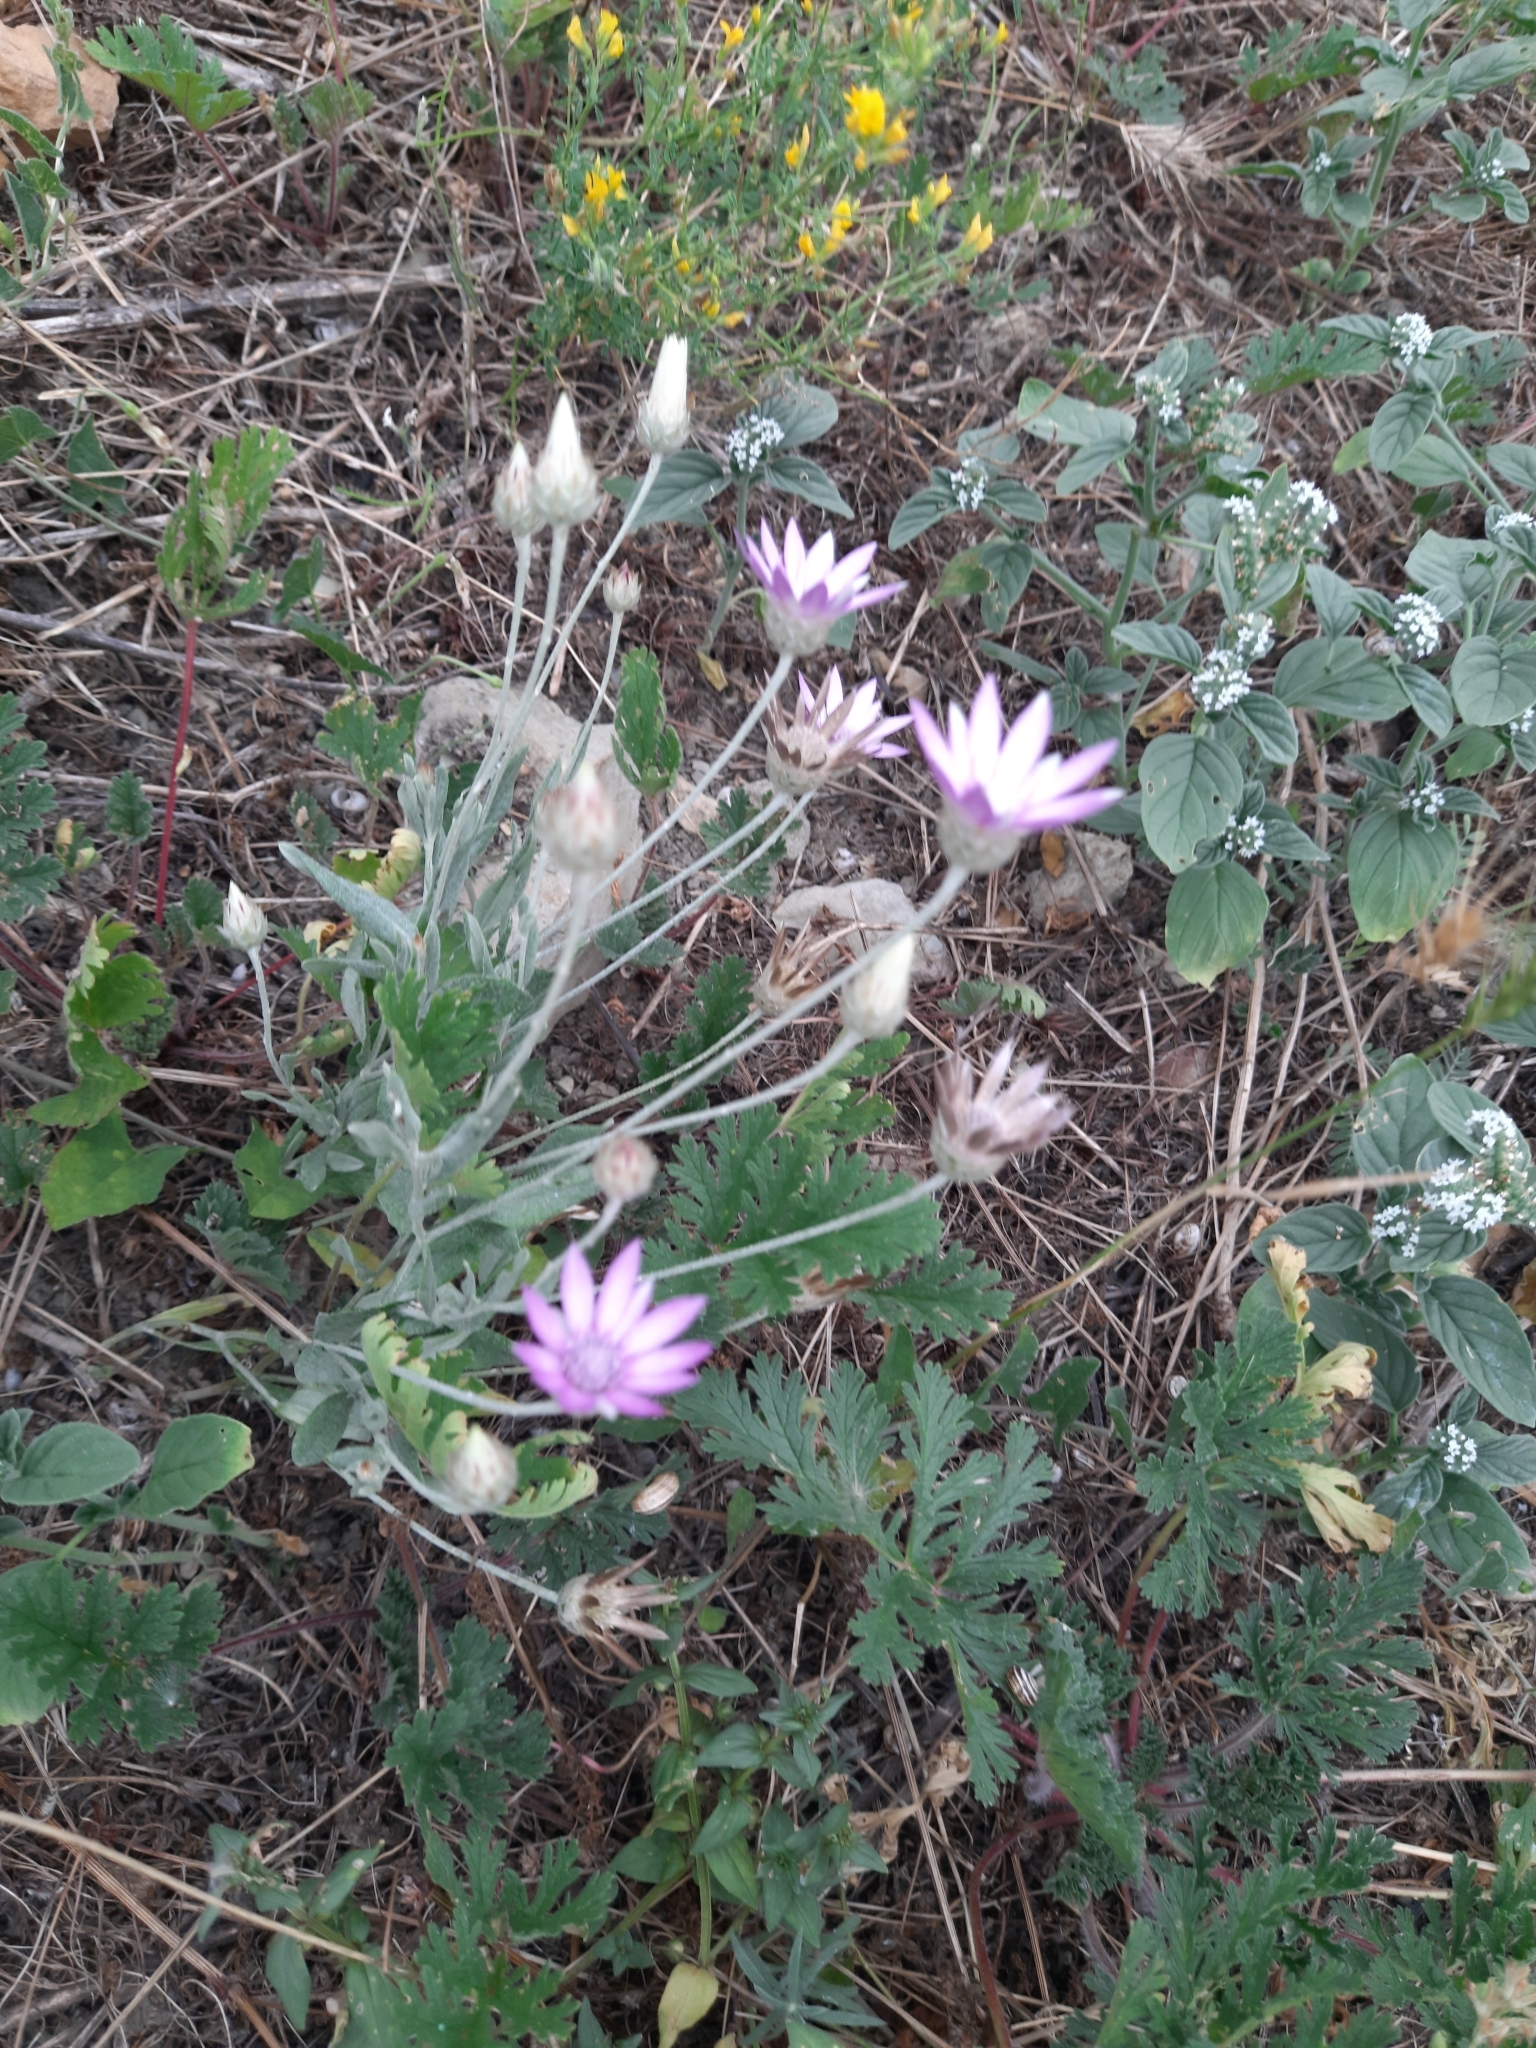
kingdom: Plantae
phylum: Tracheophyta
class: Magnoliopsida
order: Asterales
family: Asteraceae
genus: Xeranthemum
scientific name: Xeranthemum annuum
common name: Immortelle
